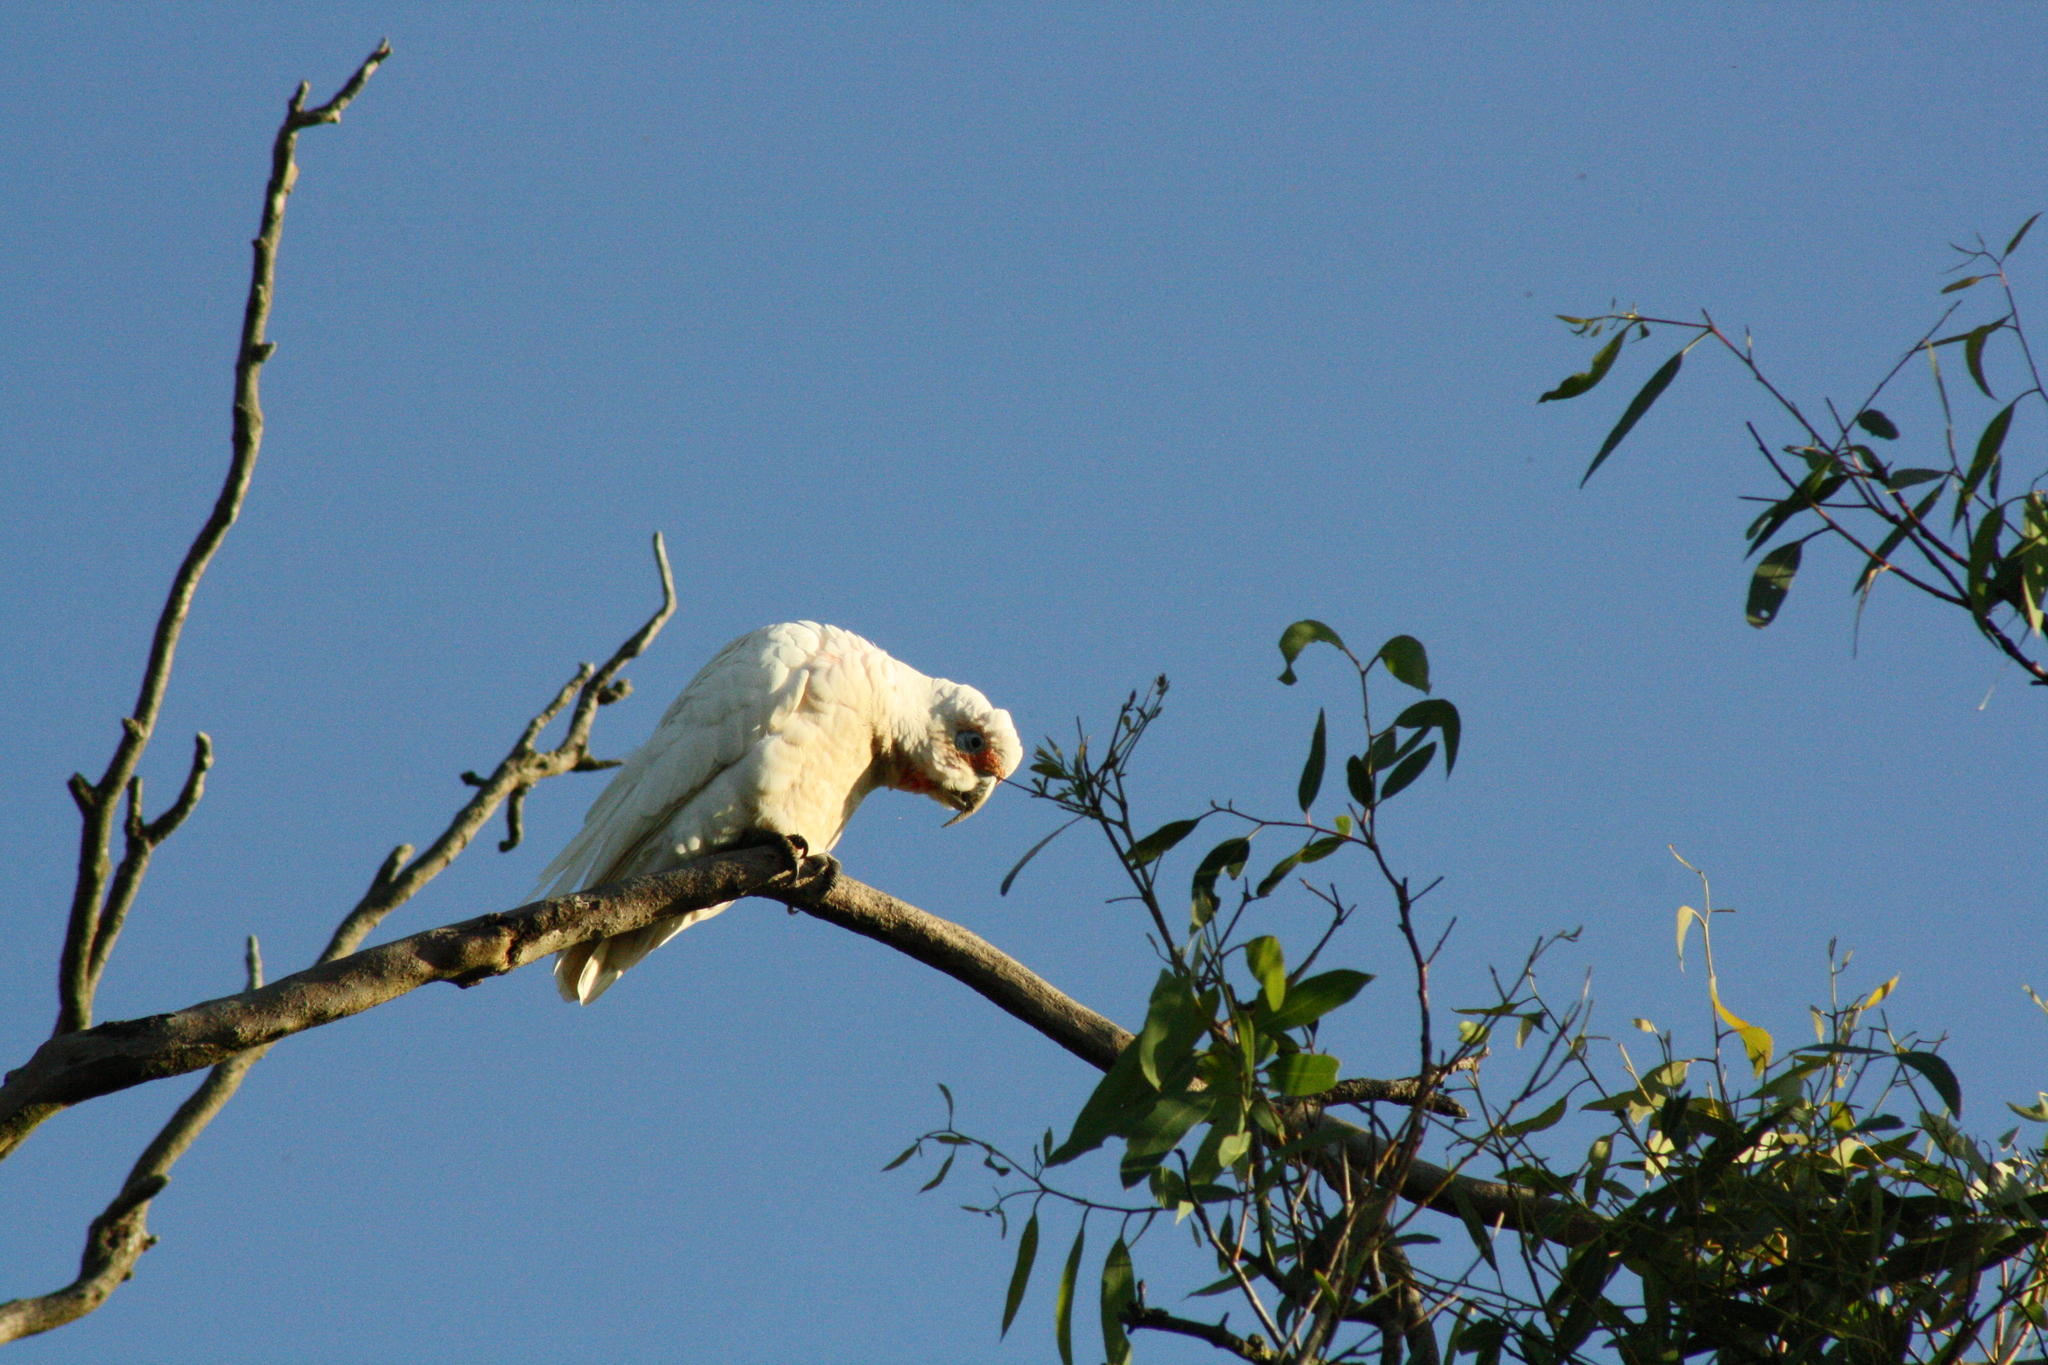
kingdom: Animalia
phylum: Chordata
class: Aves
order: Psittaciformes
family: Psittacidae
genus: Cacatua
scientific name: Cacatua tenuirostris
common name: Long-billed corella
